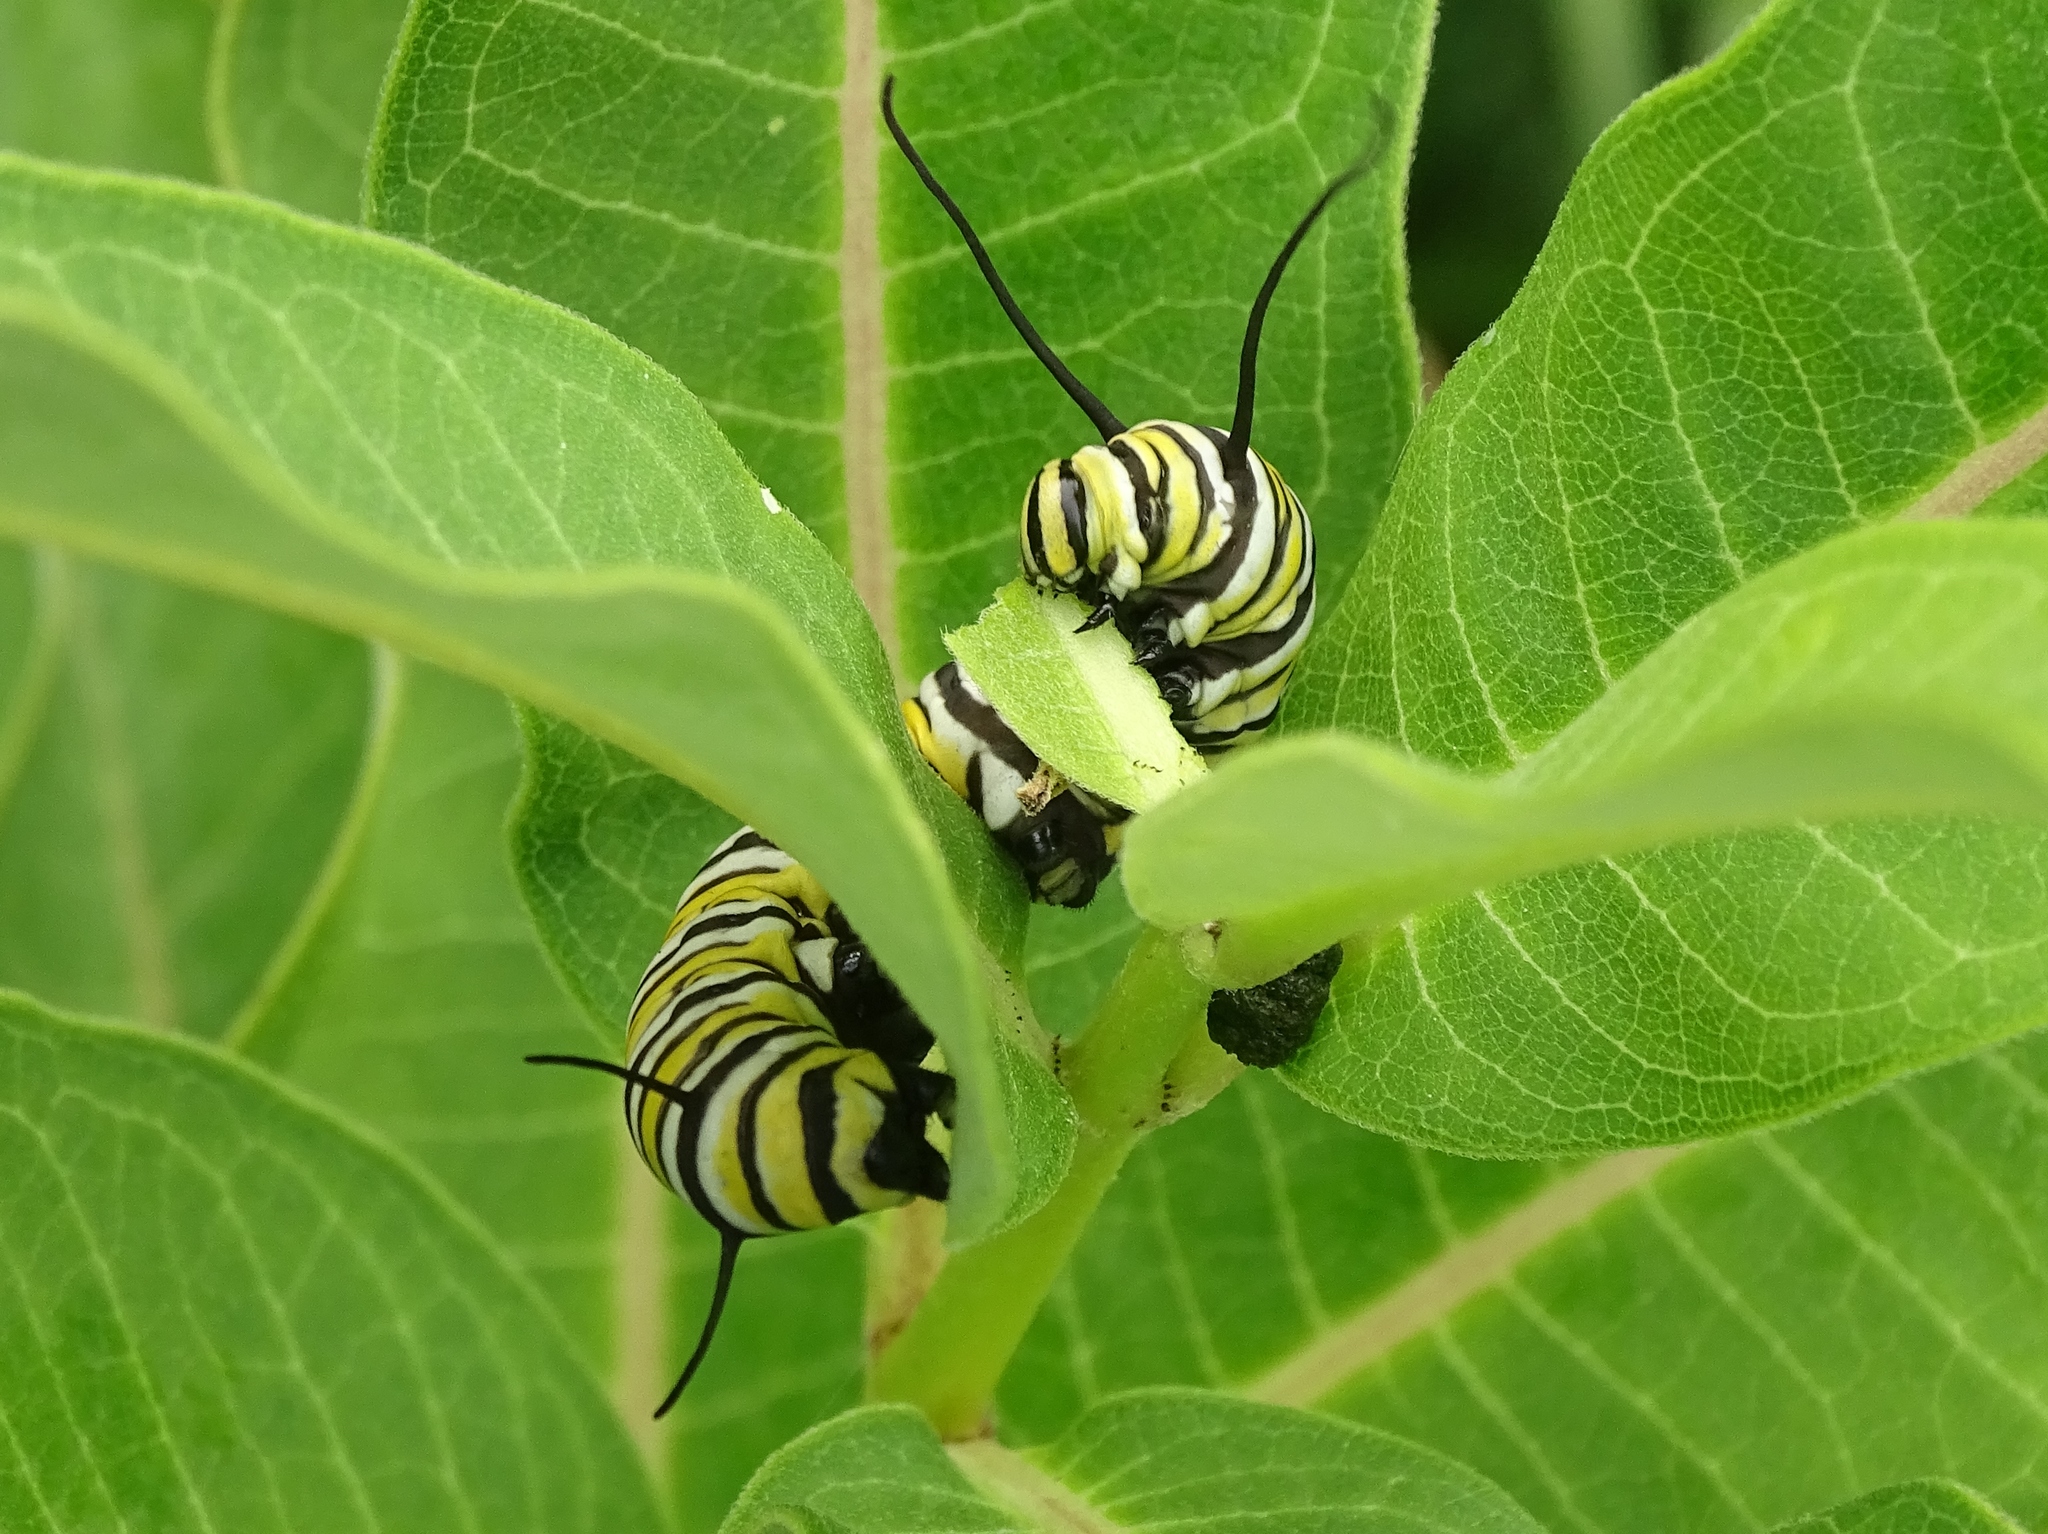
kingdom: Animalia
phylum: Arthropoda
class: Insecta
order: Lepidoptera
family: Nymphalidae
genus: Danaus
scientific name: Danaus plexippus
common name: Monarch
